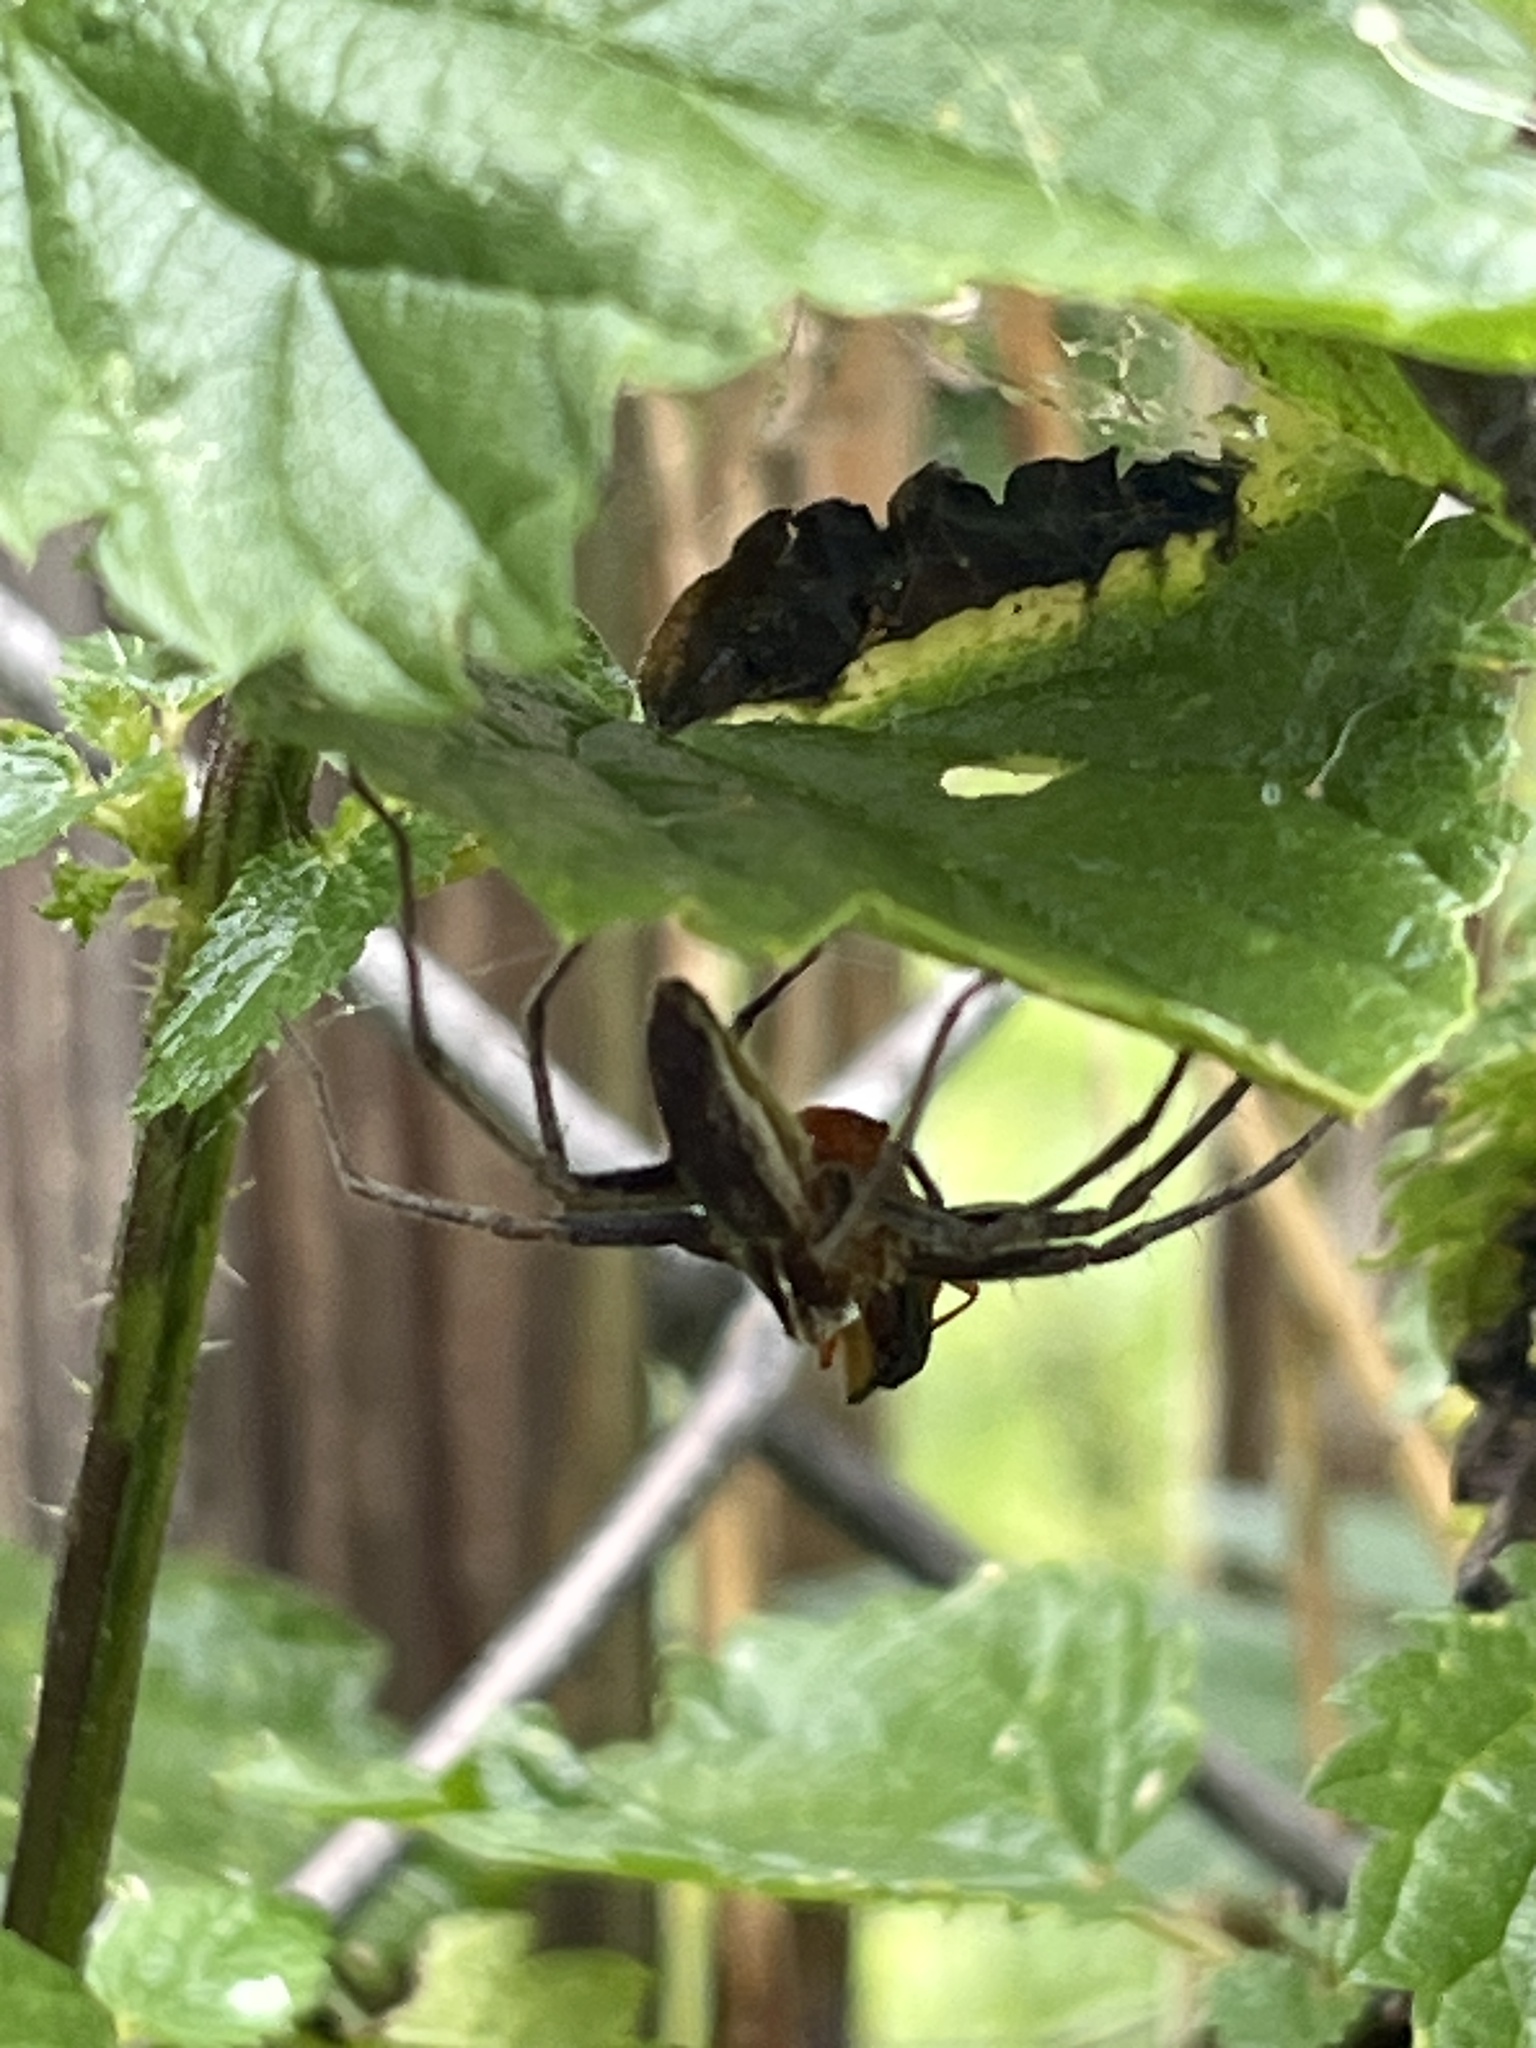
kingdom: Animalia
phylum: Arthropoda
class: Arachnida
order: Araneae
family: Pisauridae
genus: Pisaura
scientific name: Pisaura mirabilis
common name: Tent spider
